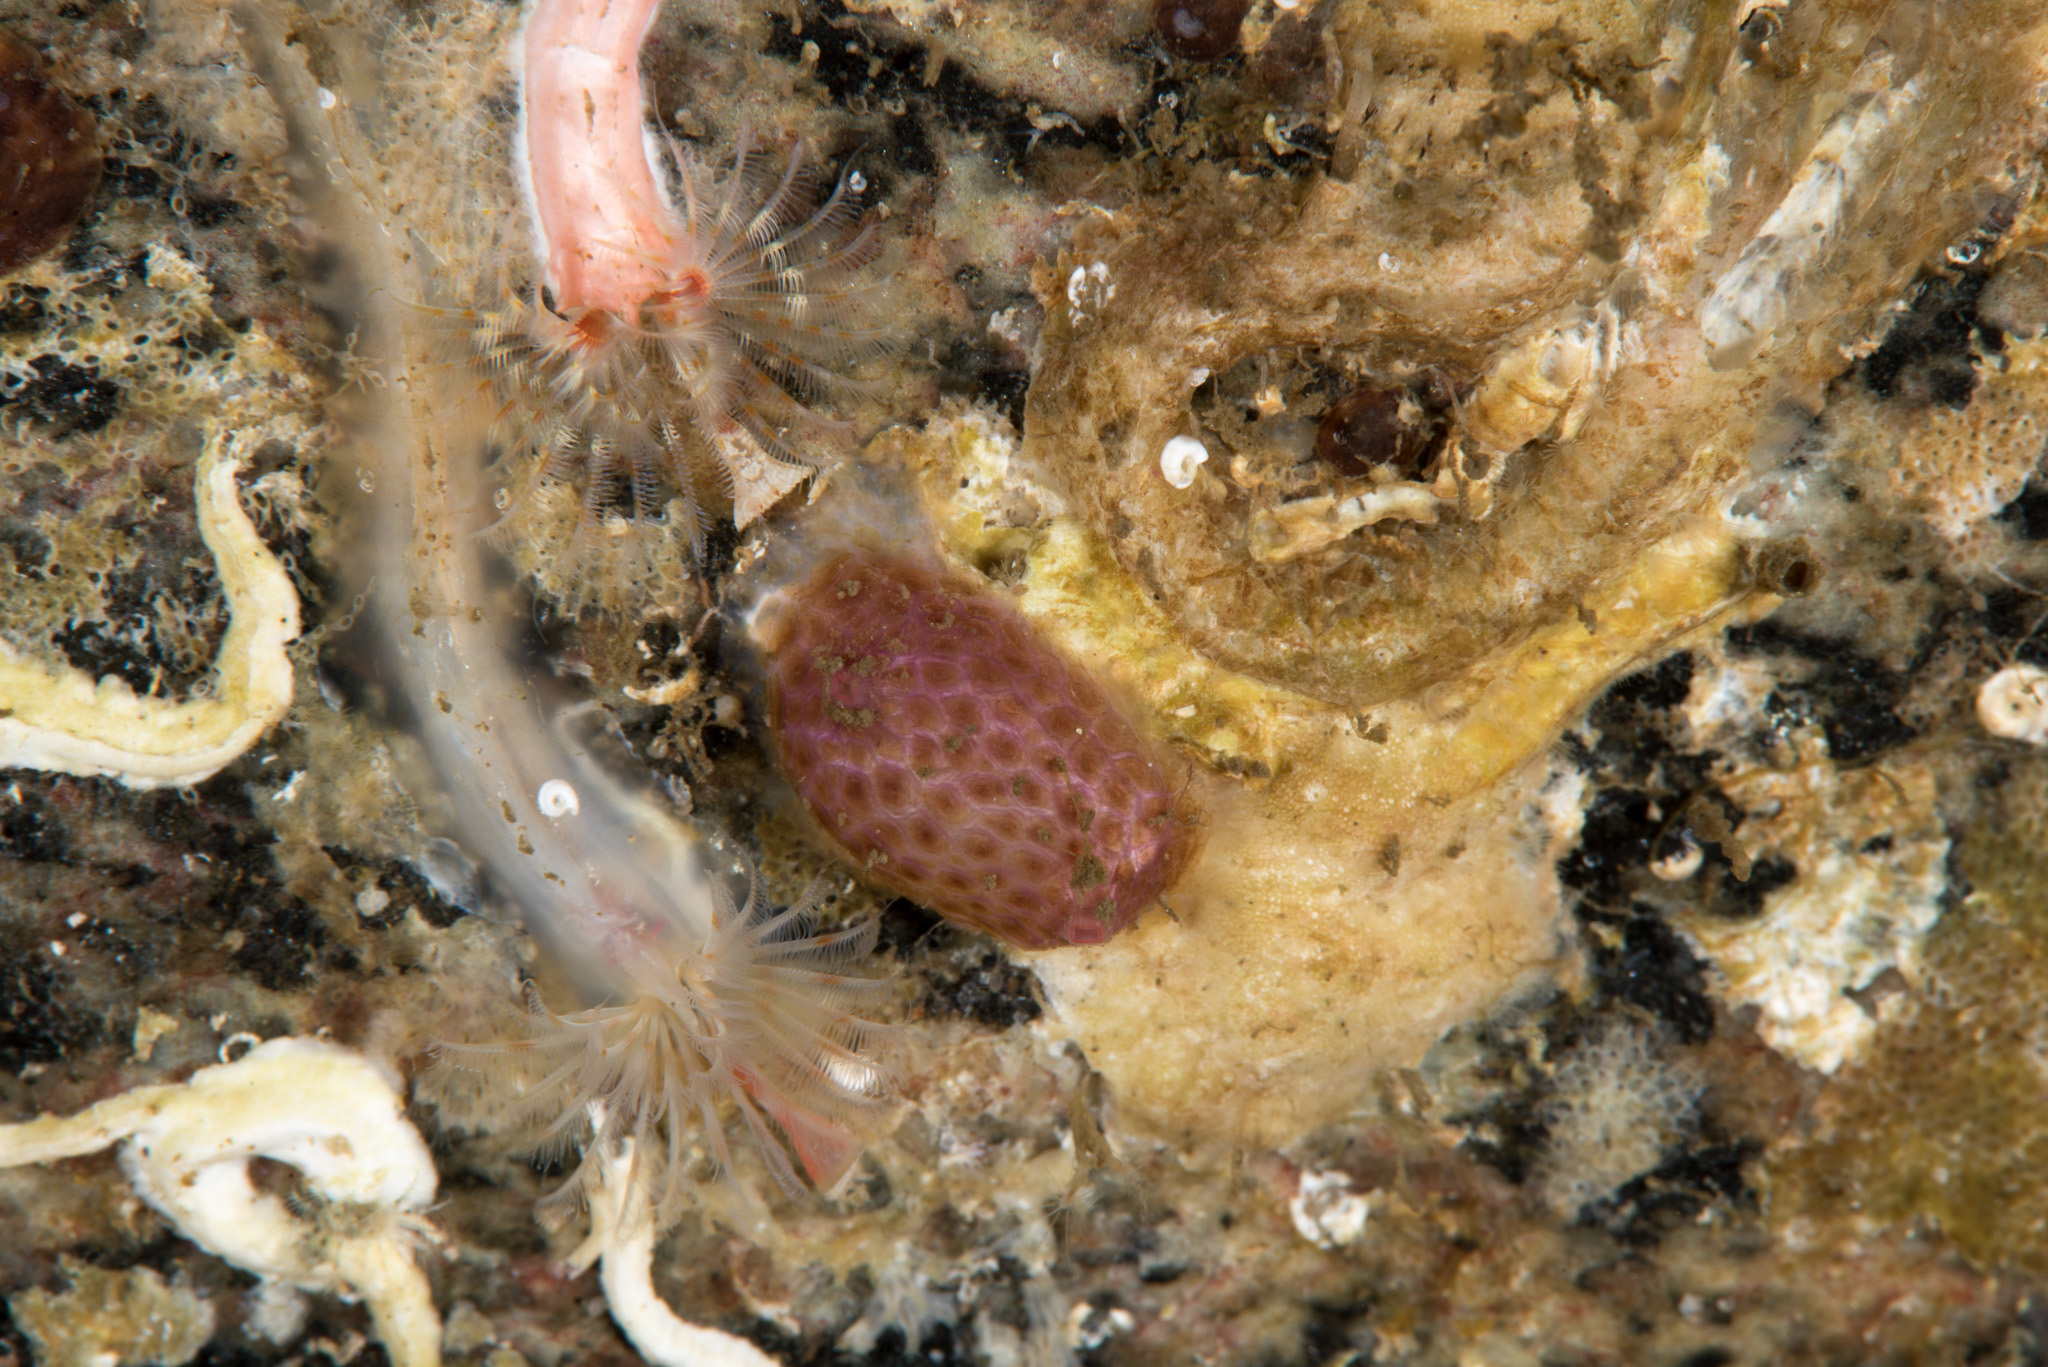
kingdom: Animalia
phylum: Chordata
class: Ascidiacea
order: Stolidobranchia
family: Pyuridae
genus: Pyura
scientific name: Pyura tessellata
